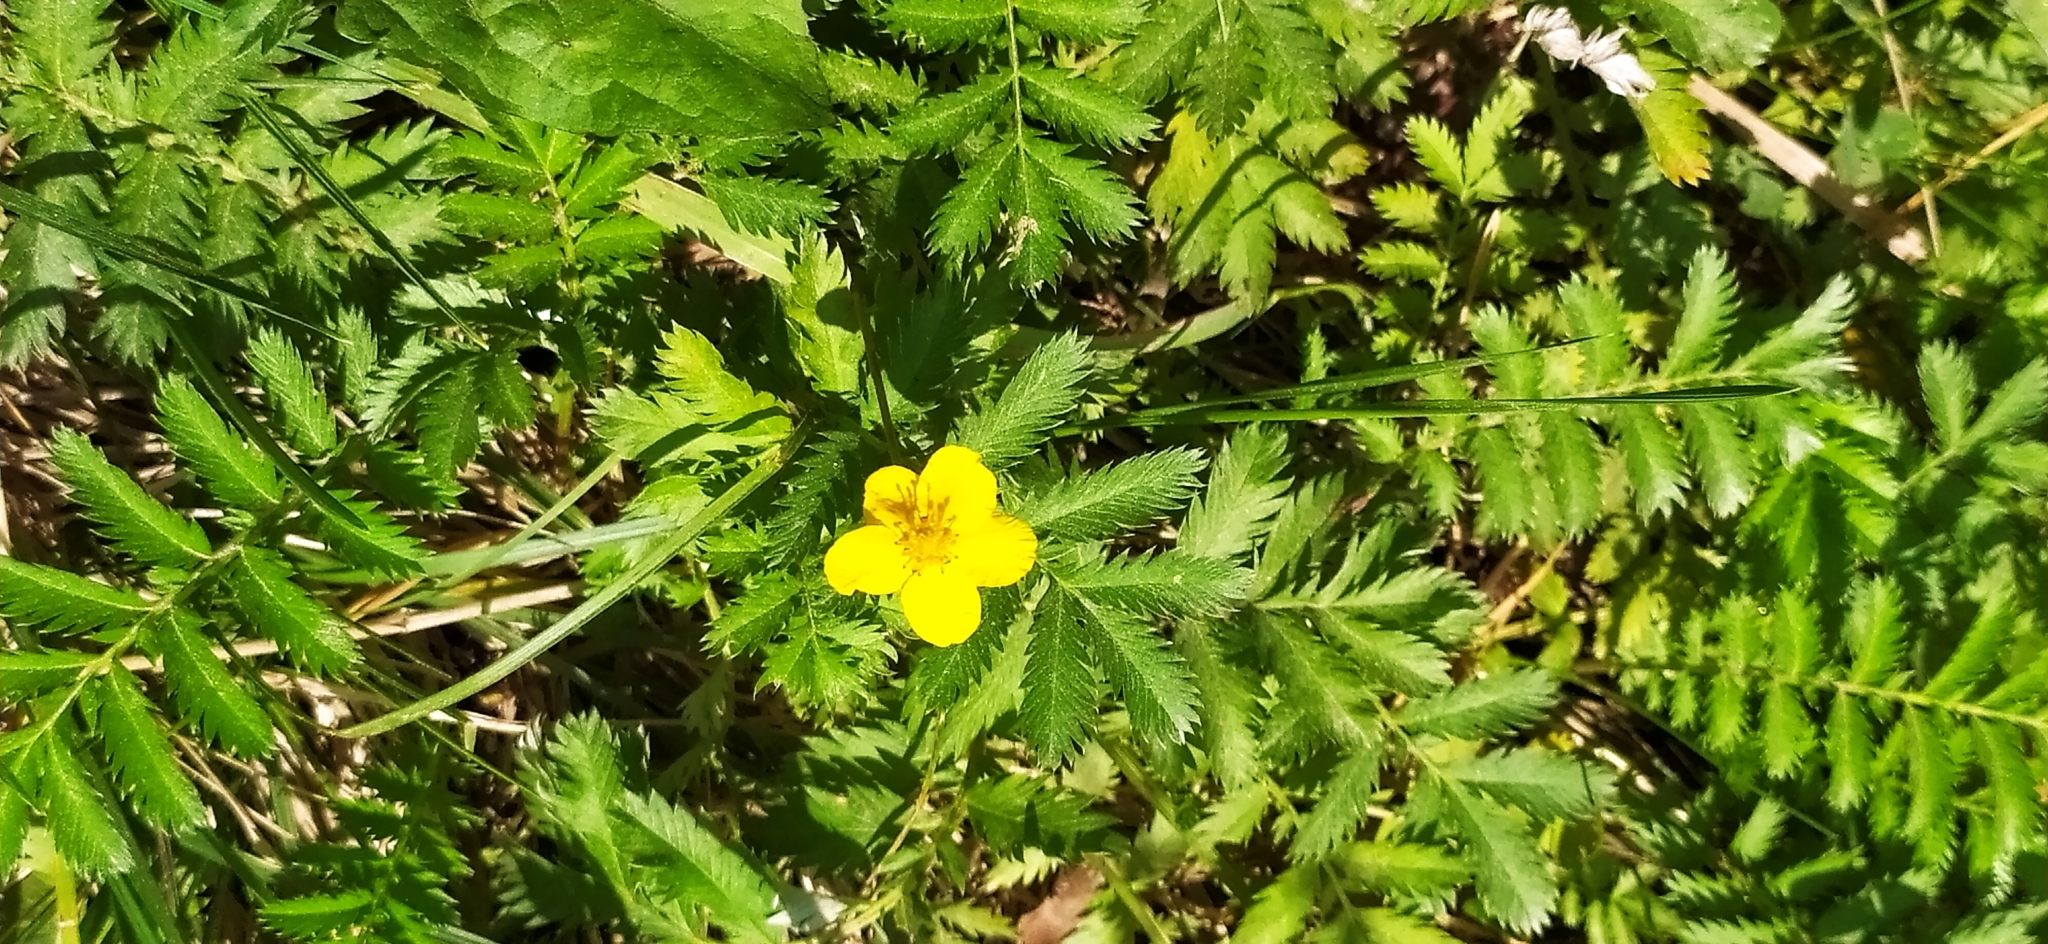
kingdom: Plantae
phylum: Tracheophyta
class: Magnoliopsida
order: Rosales
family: Rosaceae
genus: Argentina
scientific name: Argentina anserina
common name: Common silverweed
